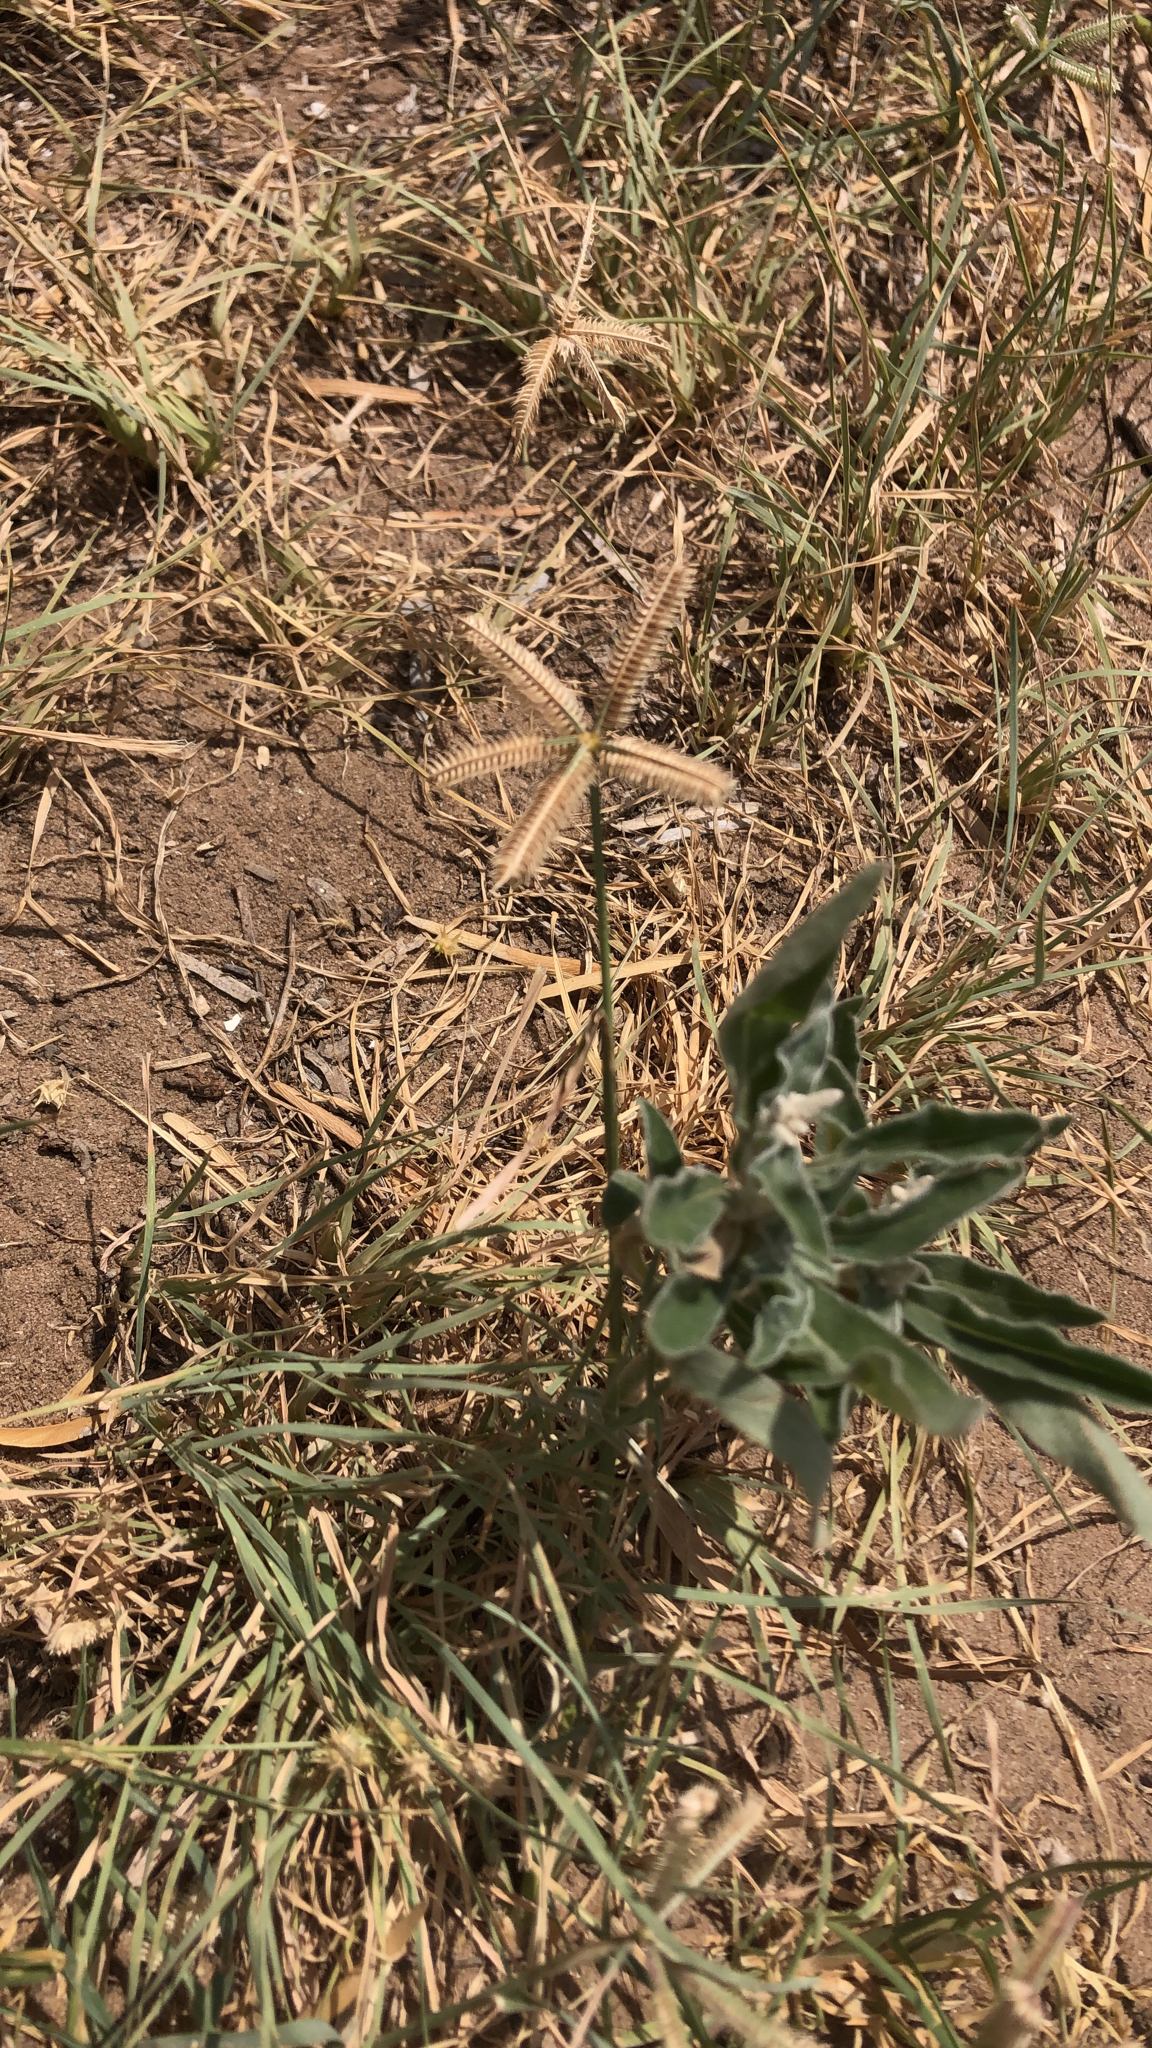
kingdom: Plantae
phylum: Tracheophyta
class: Liliopsida
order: Poales
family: Poaceae
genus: Dactyloctenium
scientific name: Dactyloctenium aegyptium
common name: Egyptian grass
